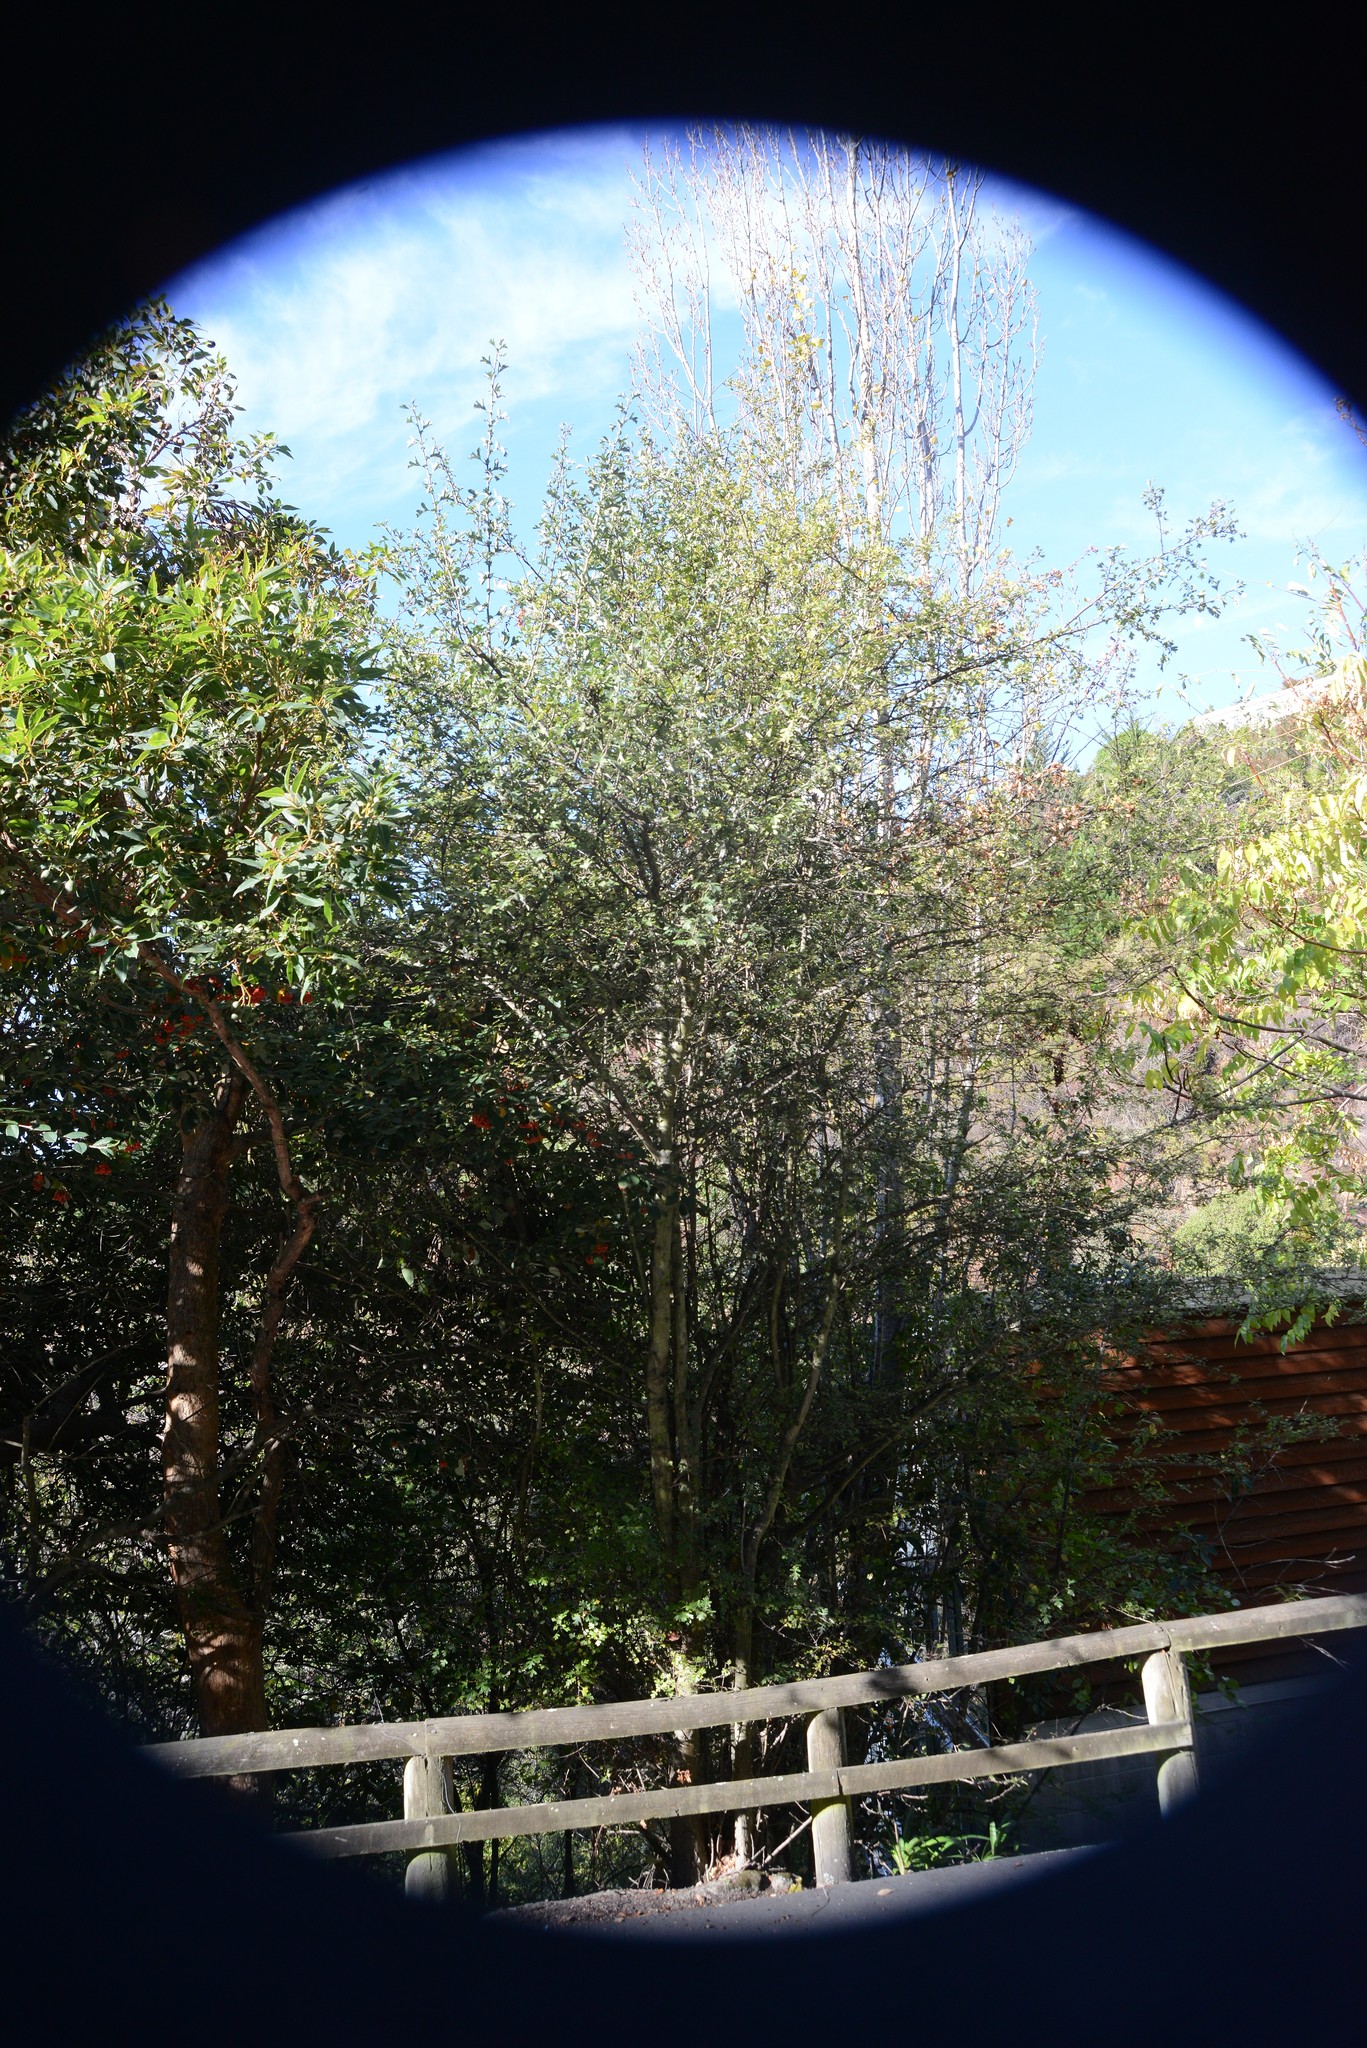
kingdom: Plantae
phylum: Tracheophyta
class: Magnoliopsida
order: Rosales
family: Rosaceae
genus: Crataegus
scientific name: Crataegus monogyna
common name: Hawthorn
